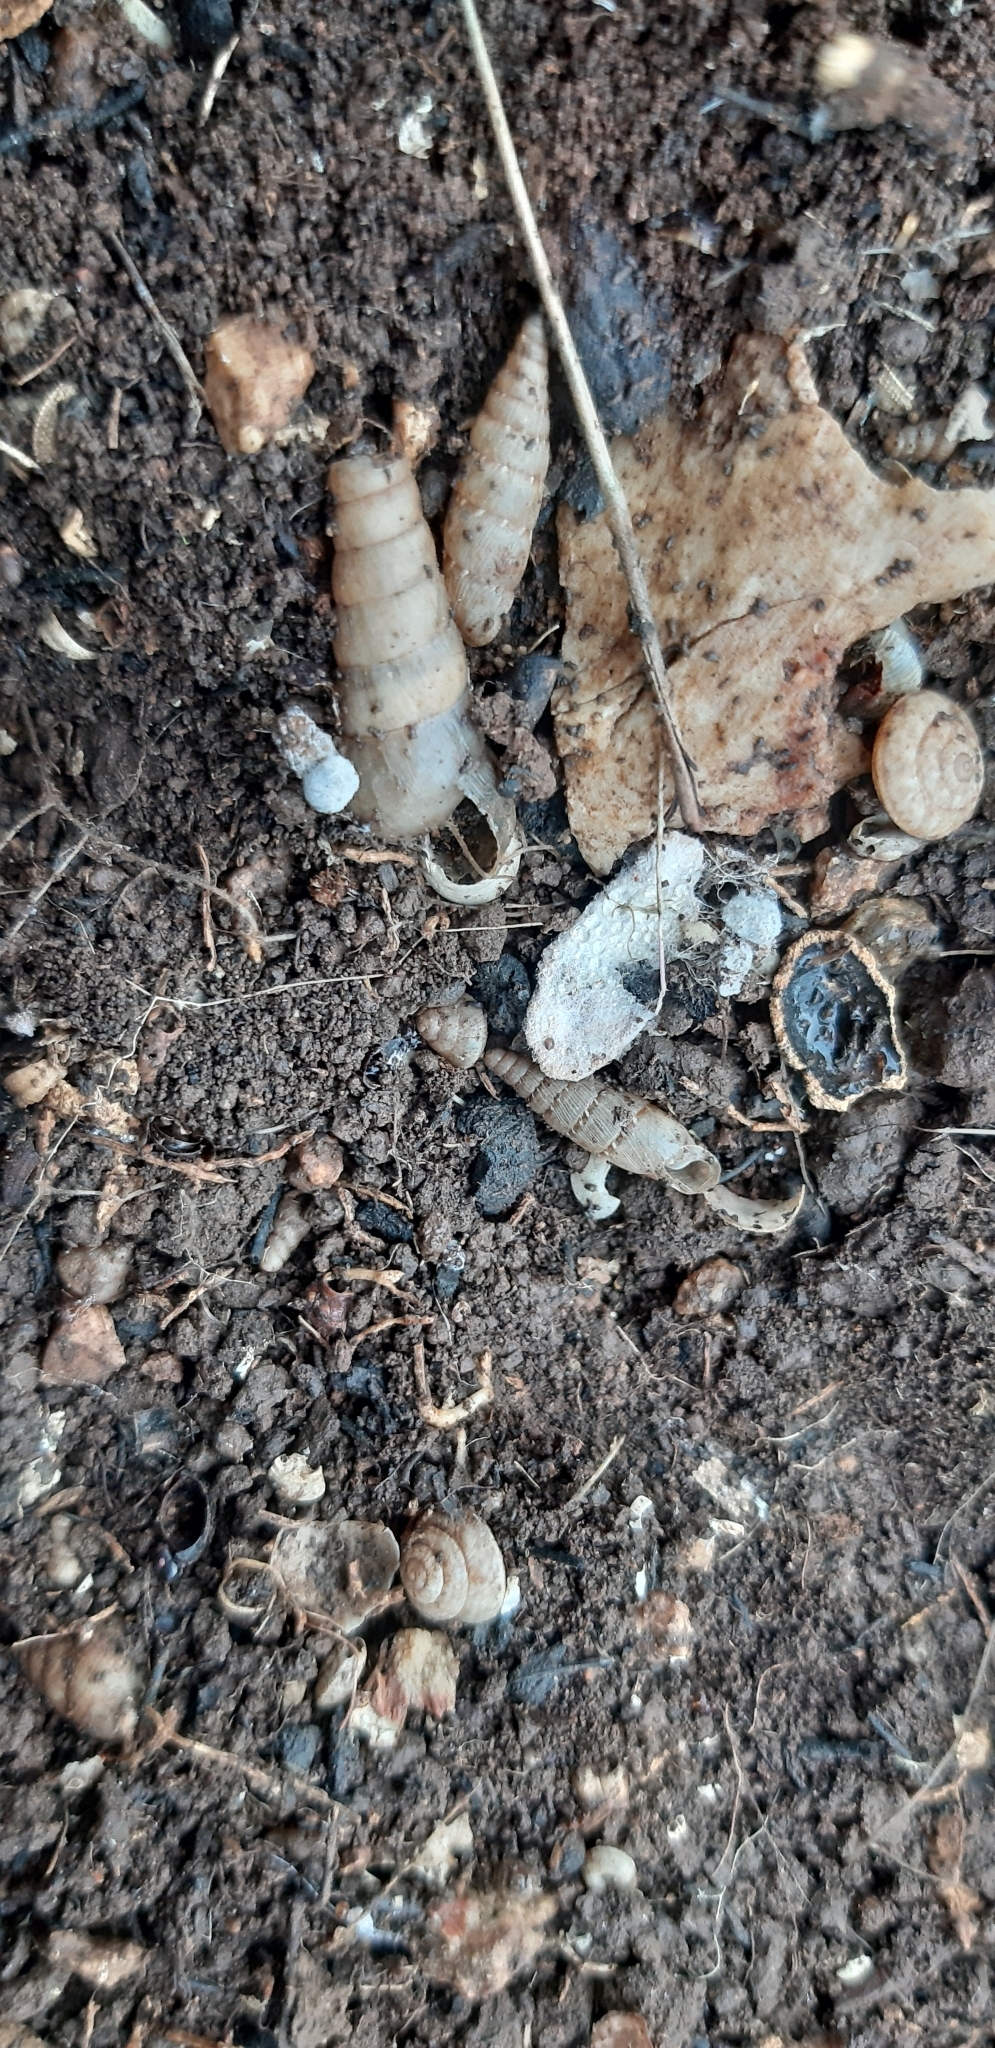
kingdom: Animalia
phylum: Mollusca
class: Gastropoda
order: Stylommatophora
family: Achatinidae
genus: Rumina
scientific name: Rumina decollata
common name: Decollate snail
